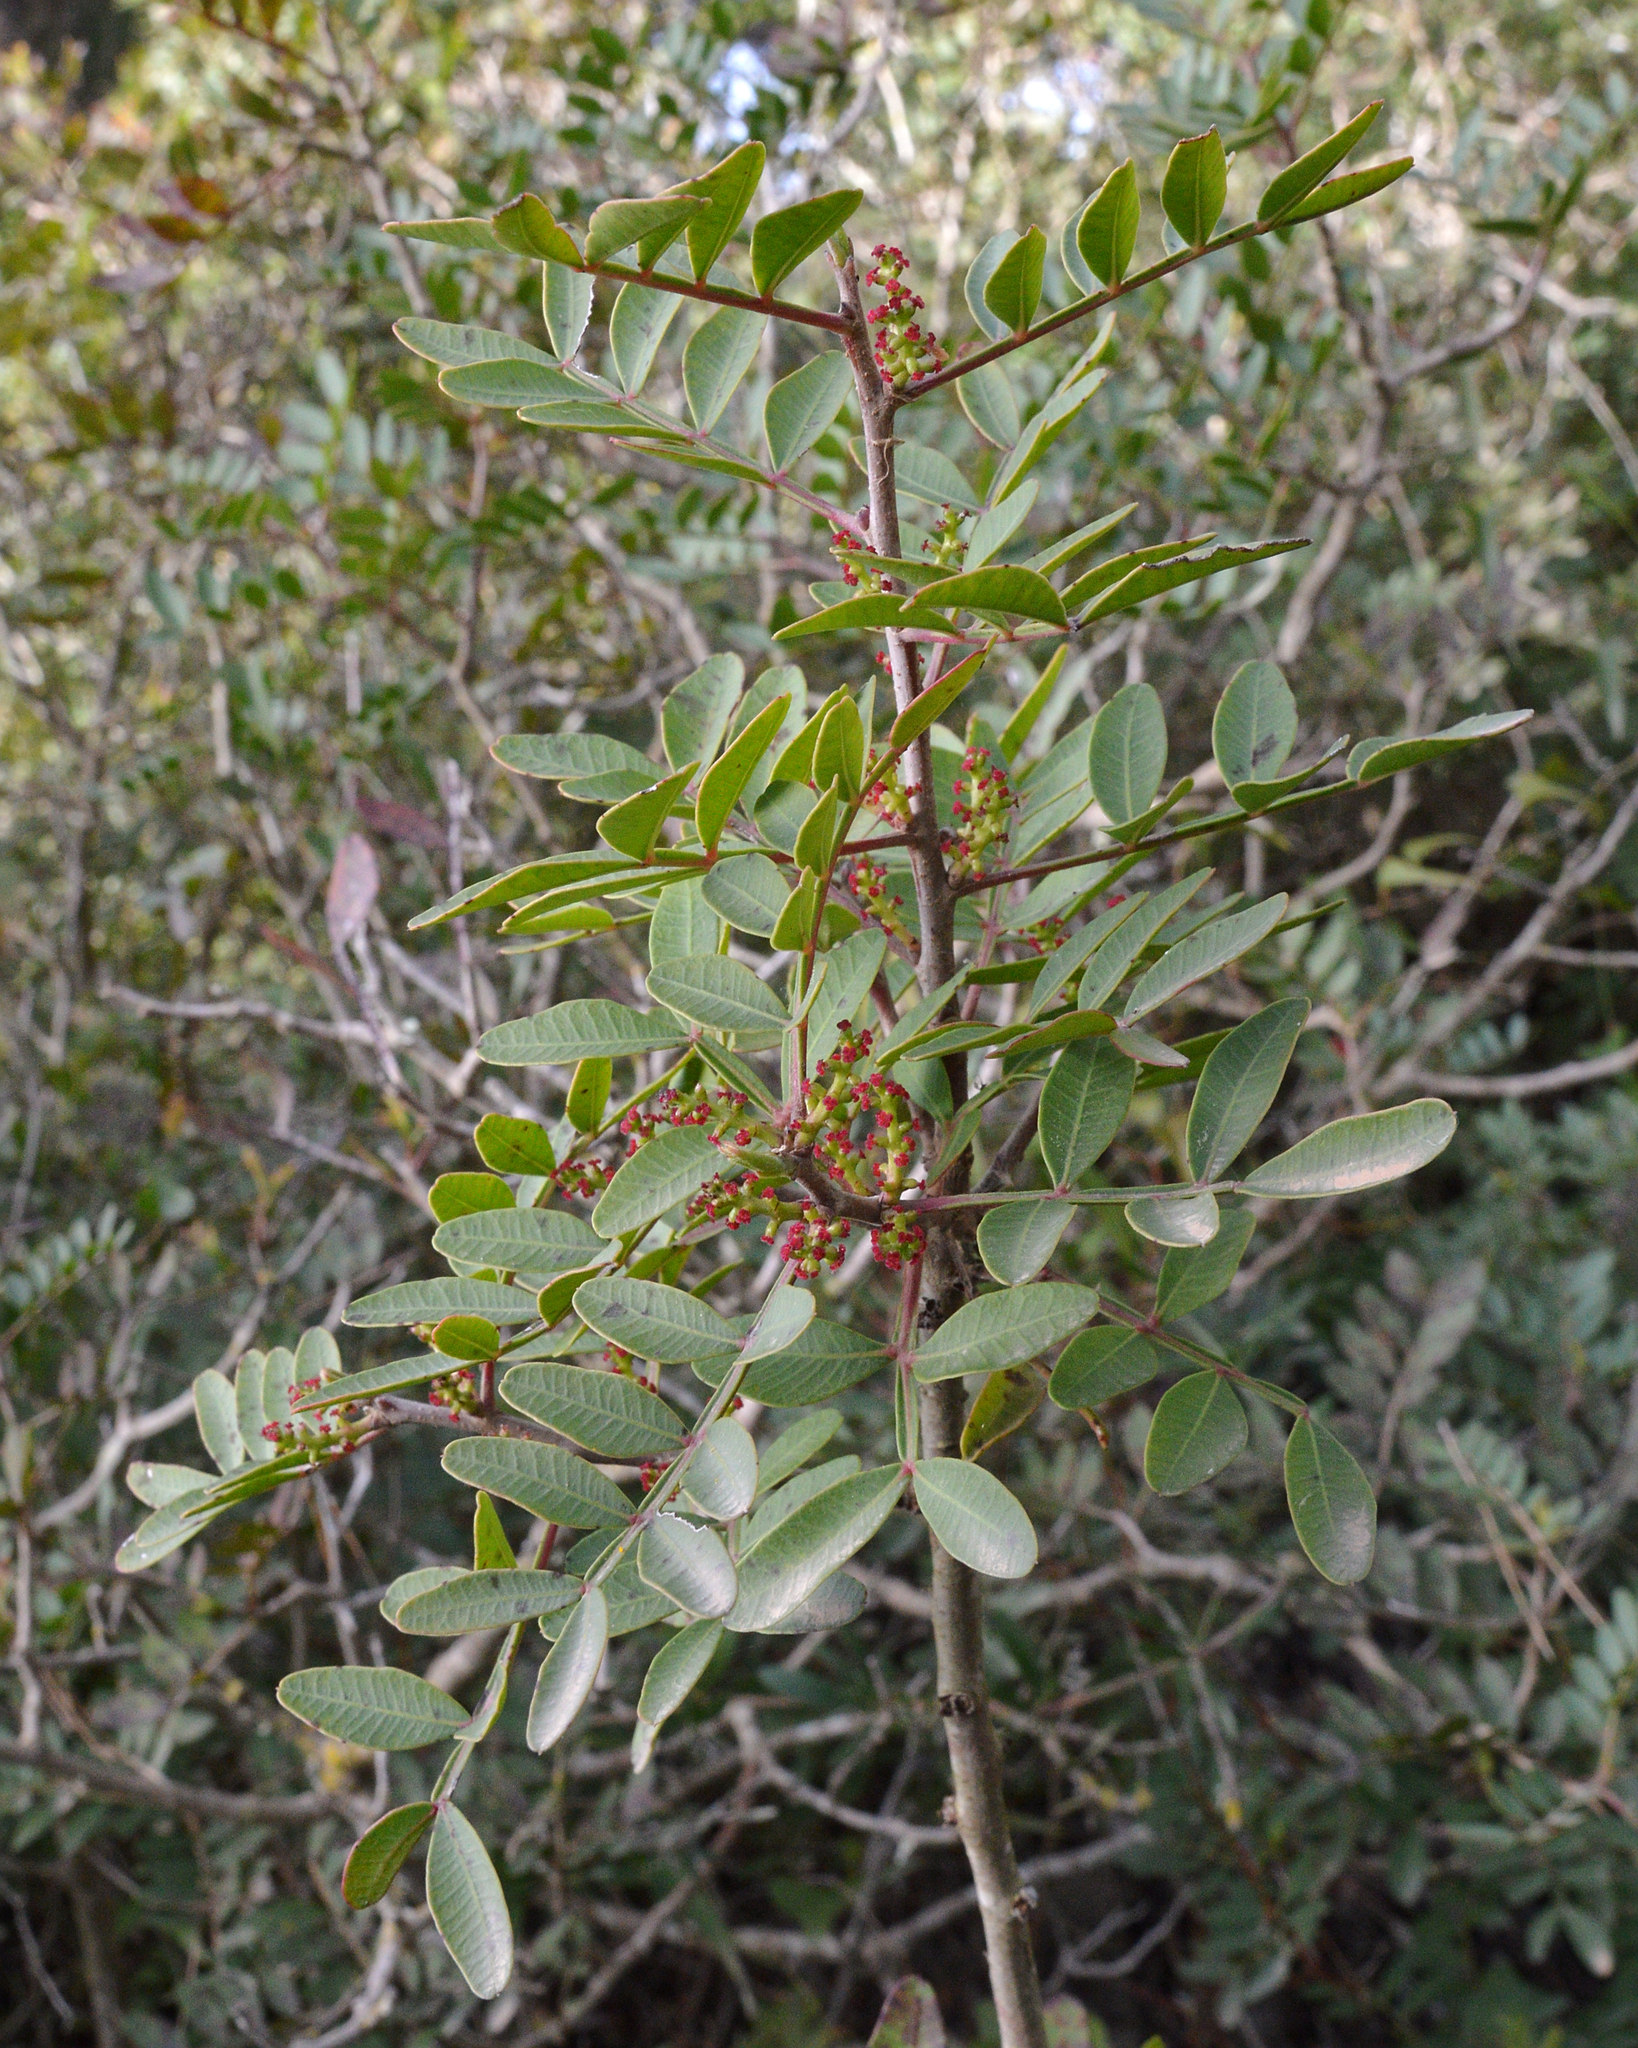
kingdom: Plantae
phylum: Tracheophyta
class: Magnoliopsida
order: Sapindales
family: Anacardiaceae
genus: Pistacia
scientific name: Pistacia lentiscus
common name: Lentisk
